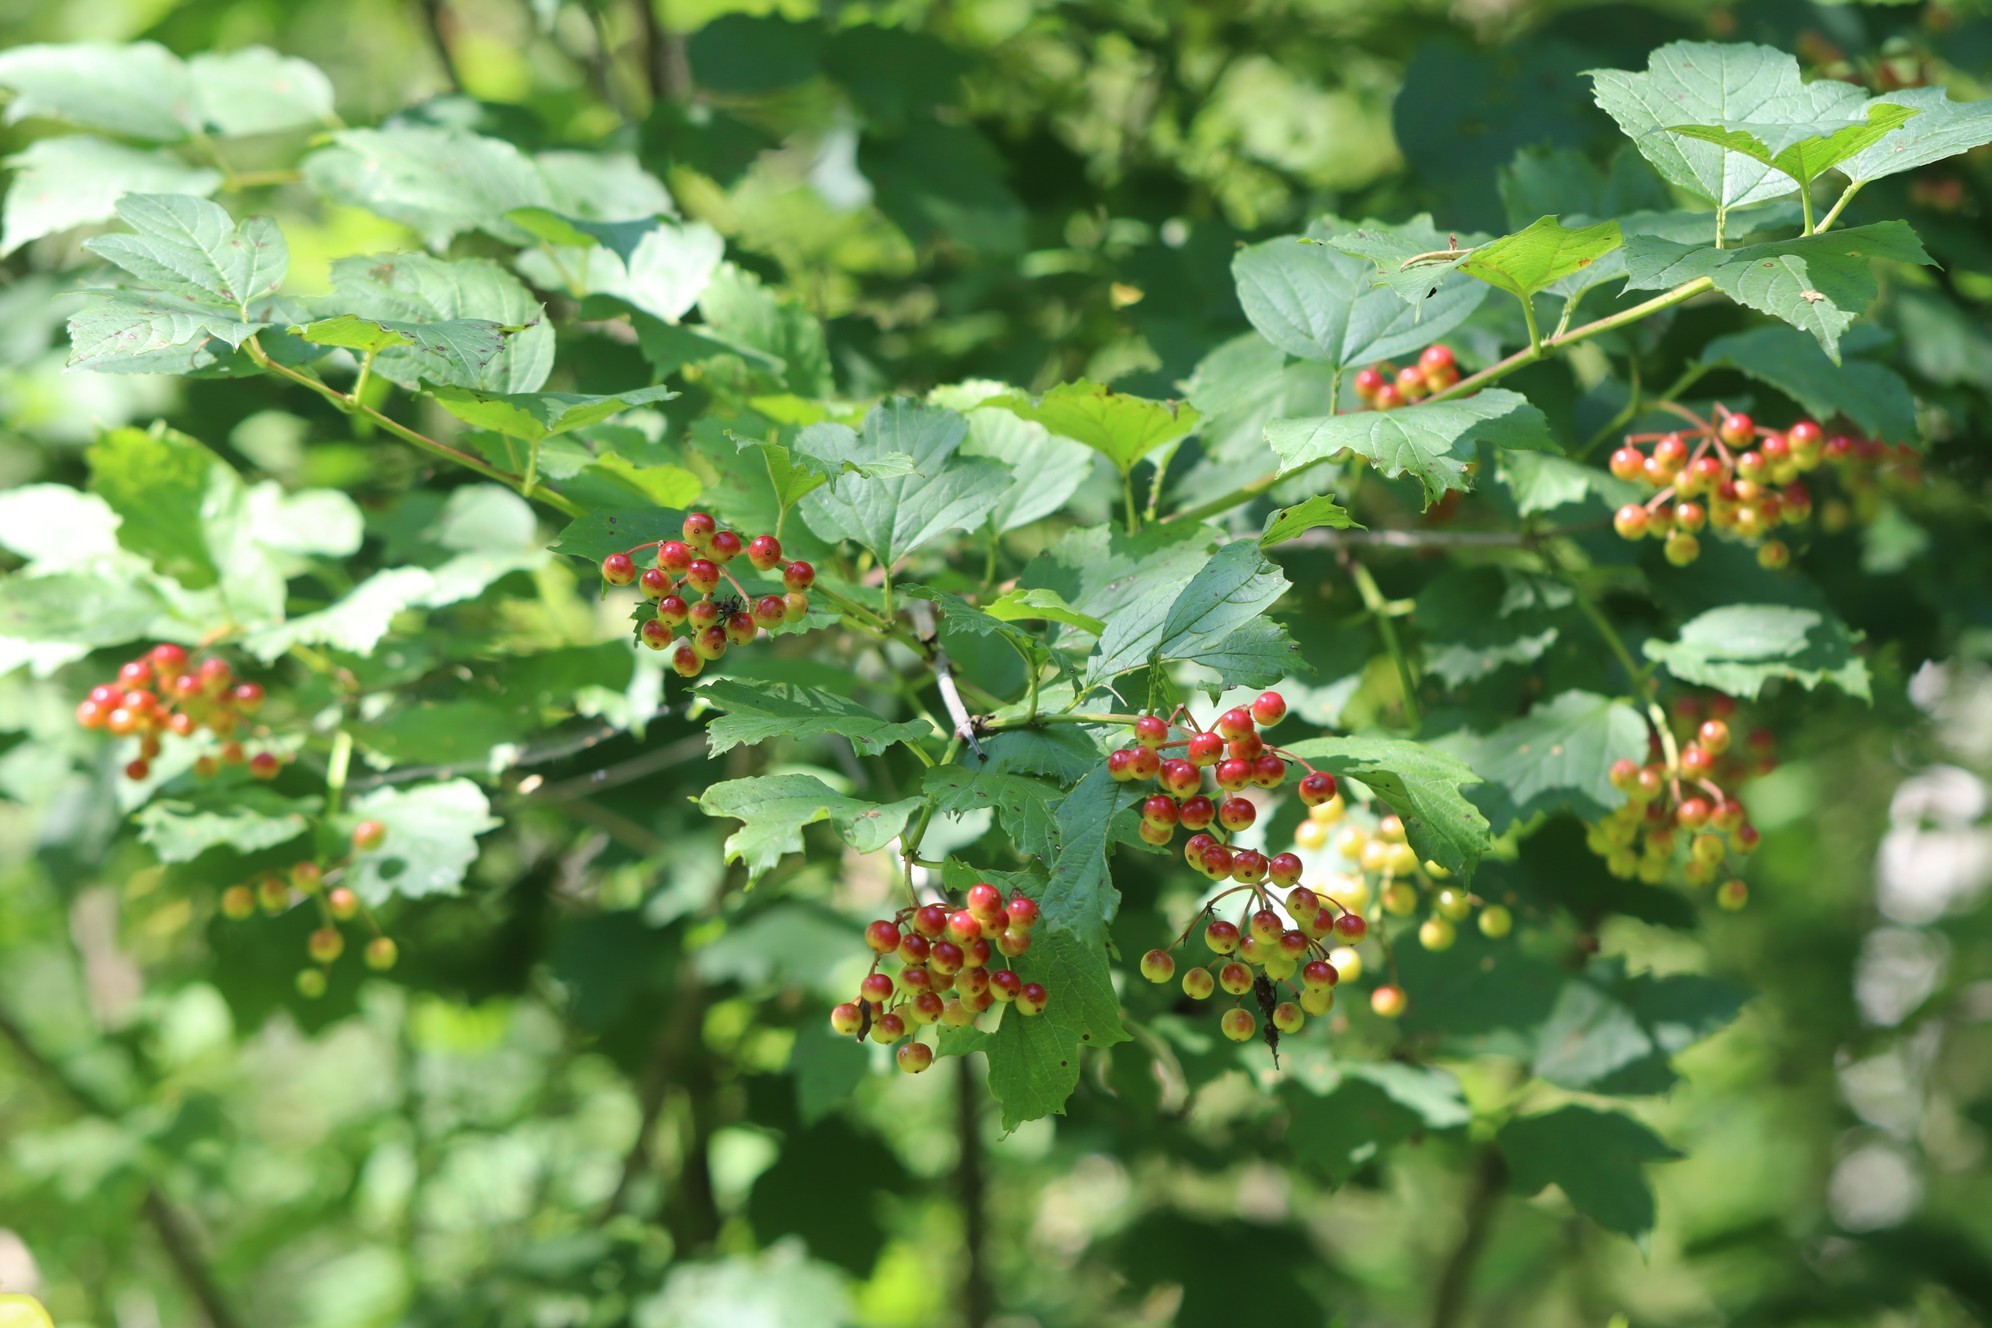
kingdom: Plantae
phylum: Tracheophyta
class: Magnoliopsida
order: Dipsacales
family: Viburnaceae
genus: Viburnum
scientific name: Viburnum opulus
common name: Guelder-rose
